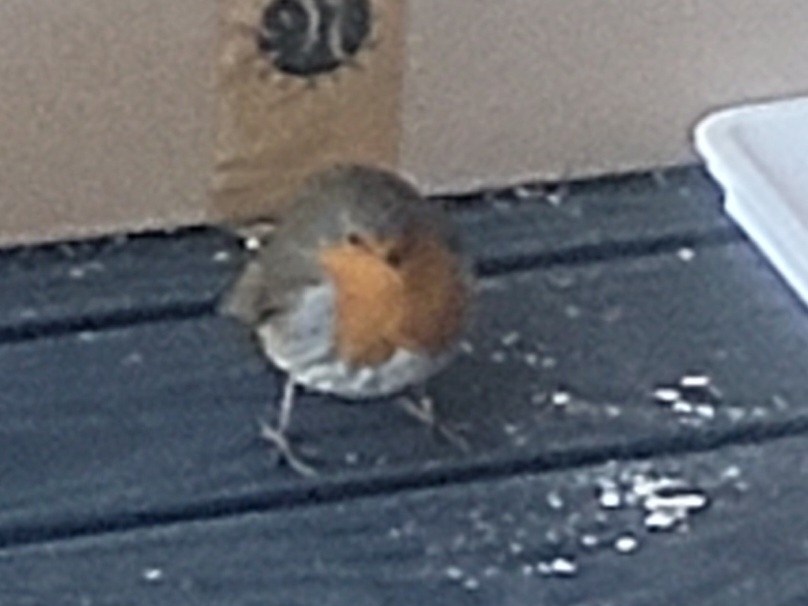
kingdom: Animalia
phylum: Chordata
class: Aves
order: Passeriformes
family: Muscicapidae
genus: Erithacus
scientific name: Erithacus rubecula
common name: European robin
